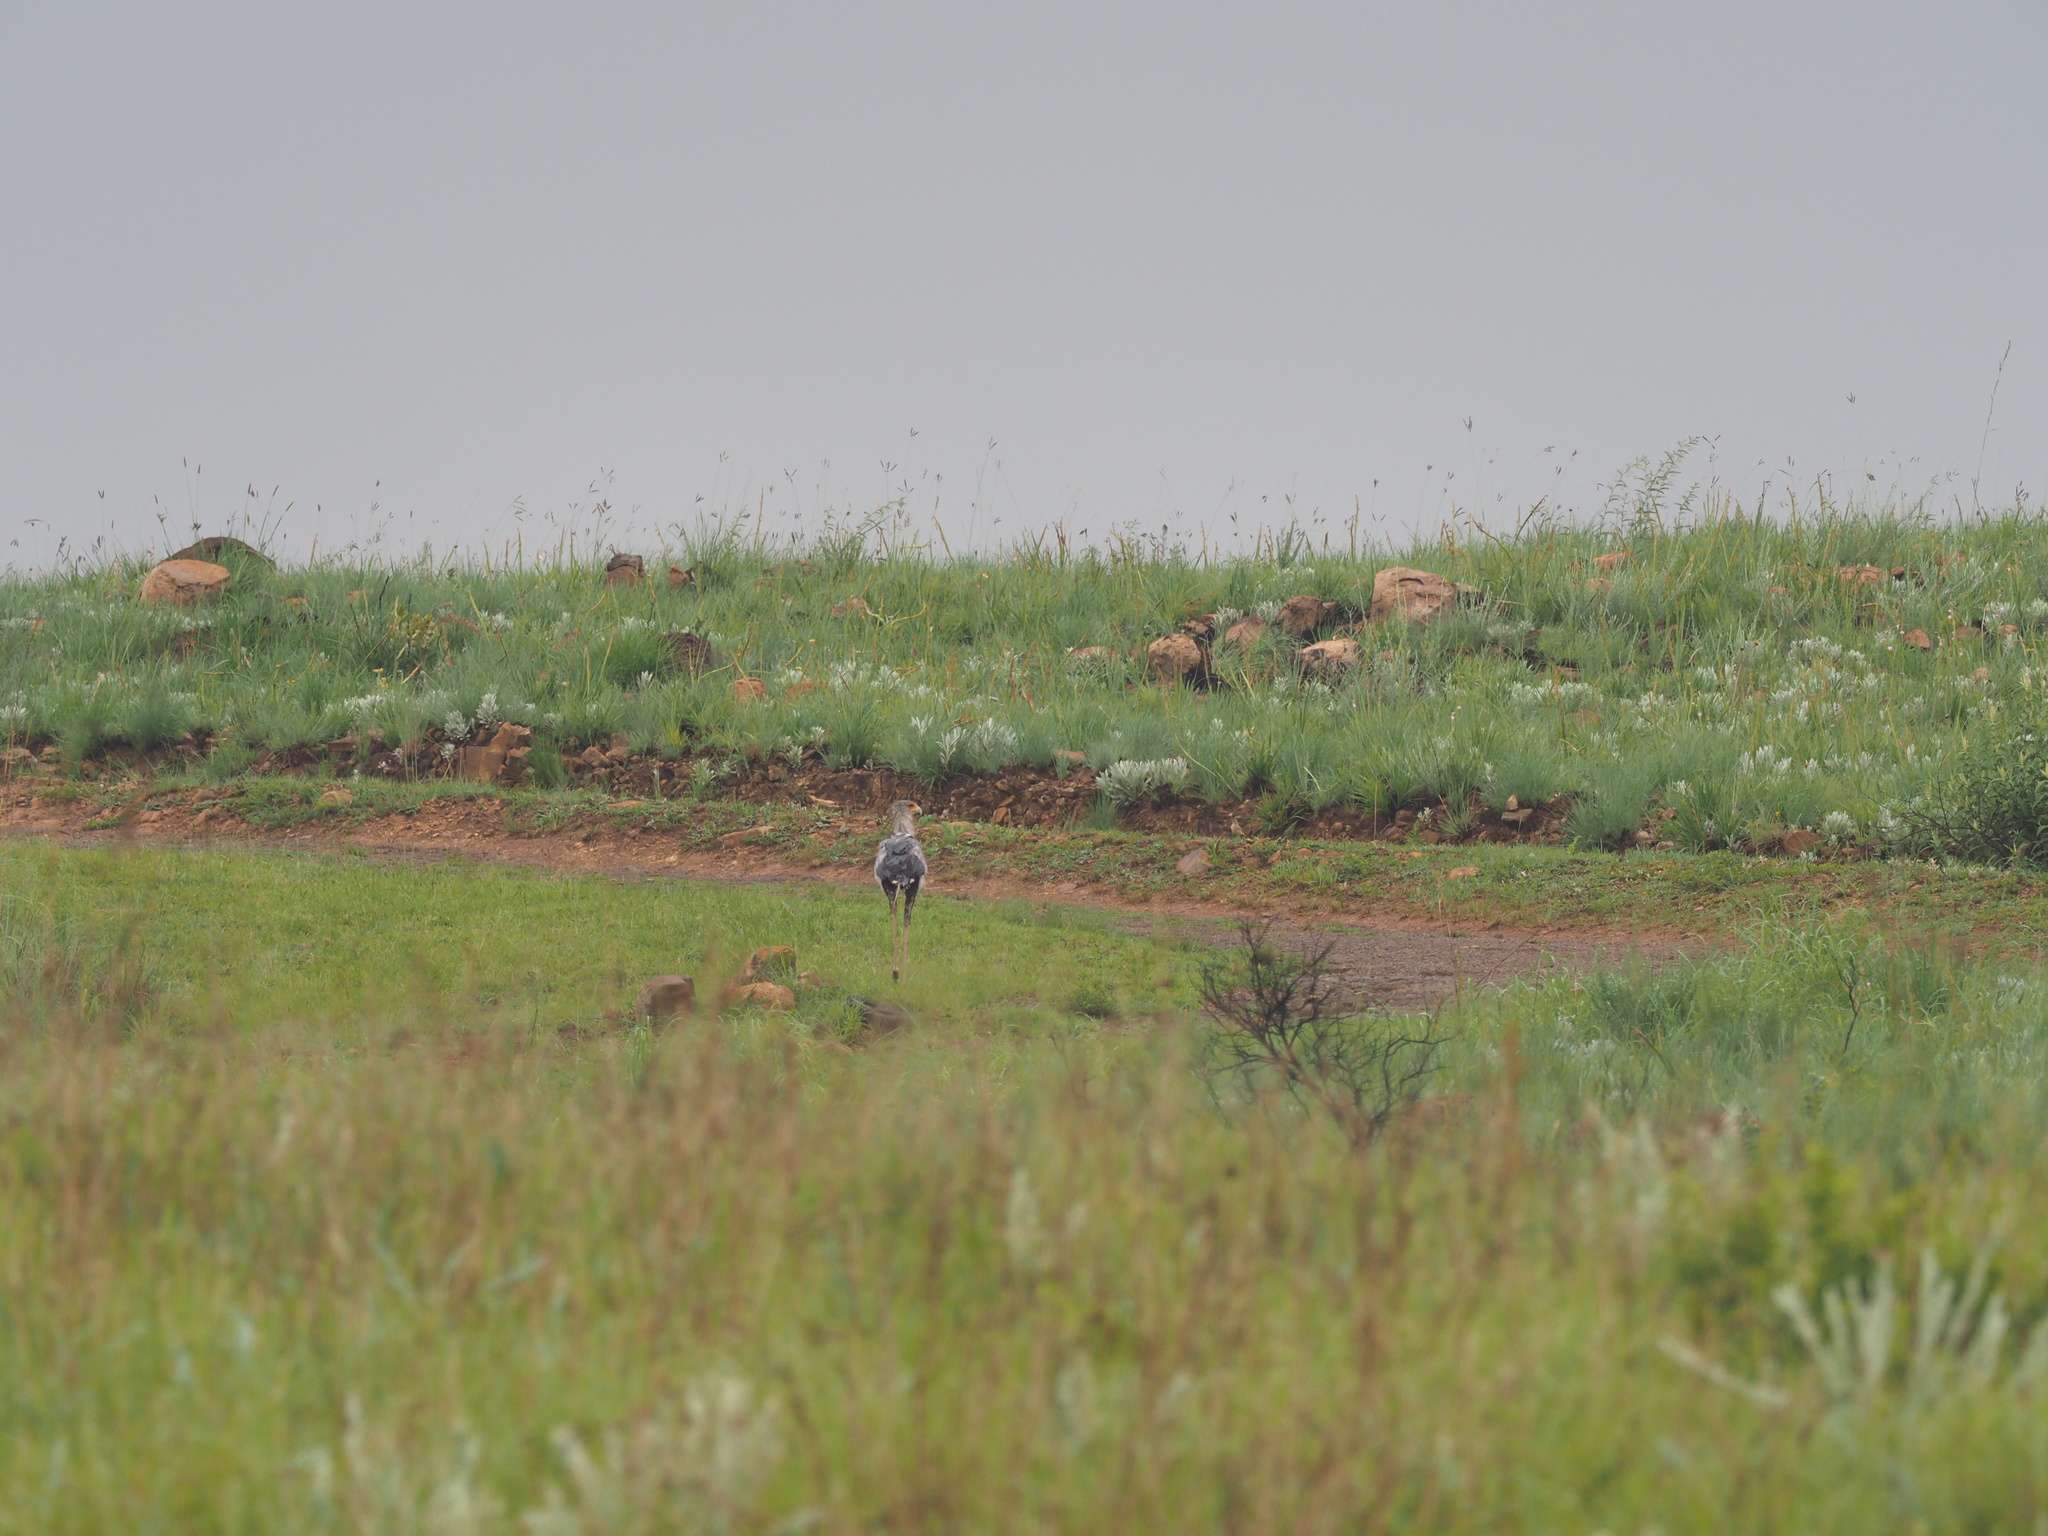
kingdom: Animalia
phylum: Chordata
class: Aves
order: Accipitriformes
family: Sagittariidae
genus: Sagittarius
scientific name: Sagittarius serpentarius
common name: Secretarybird
